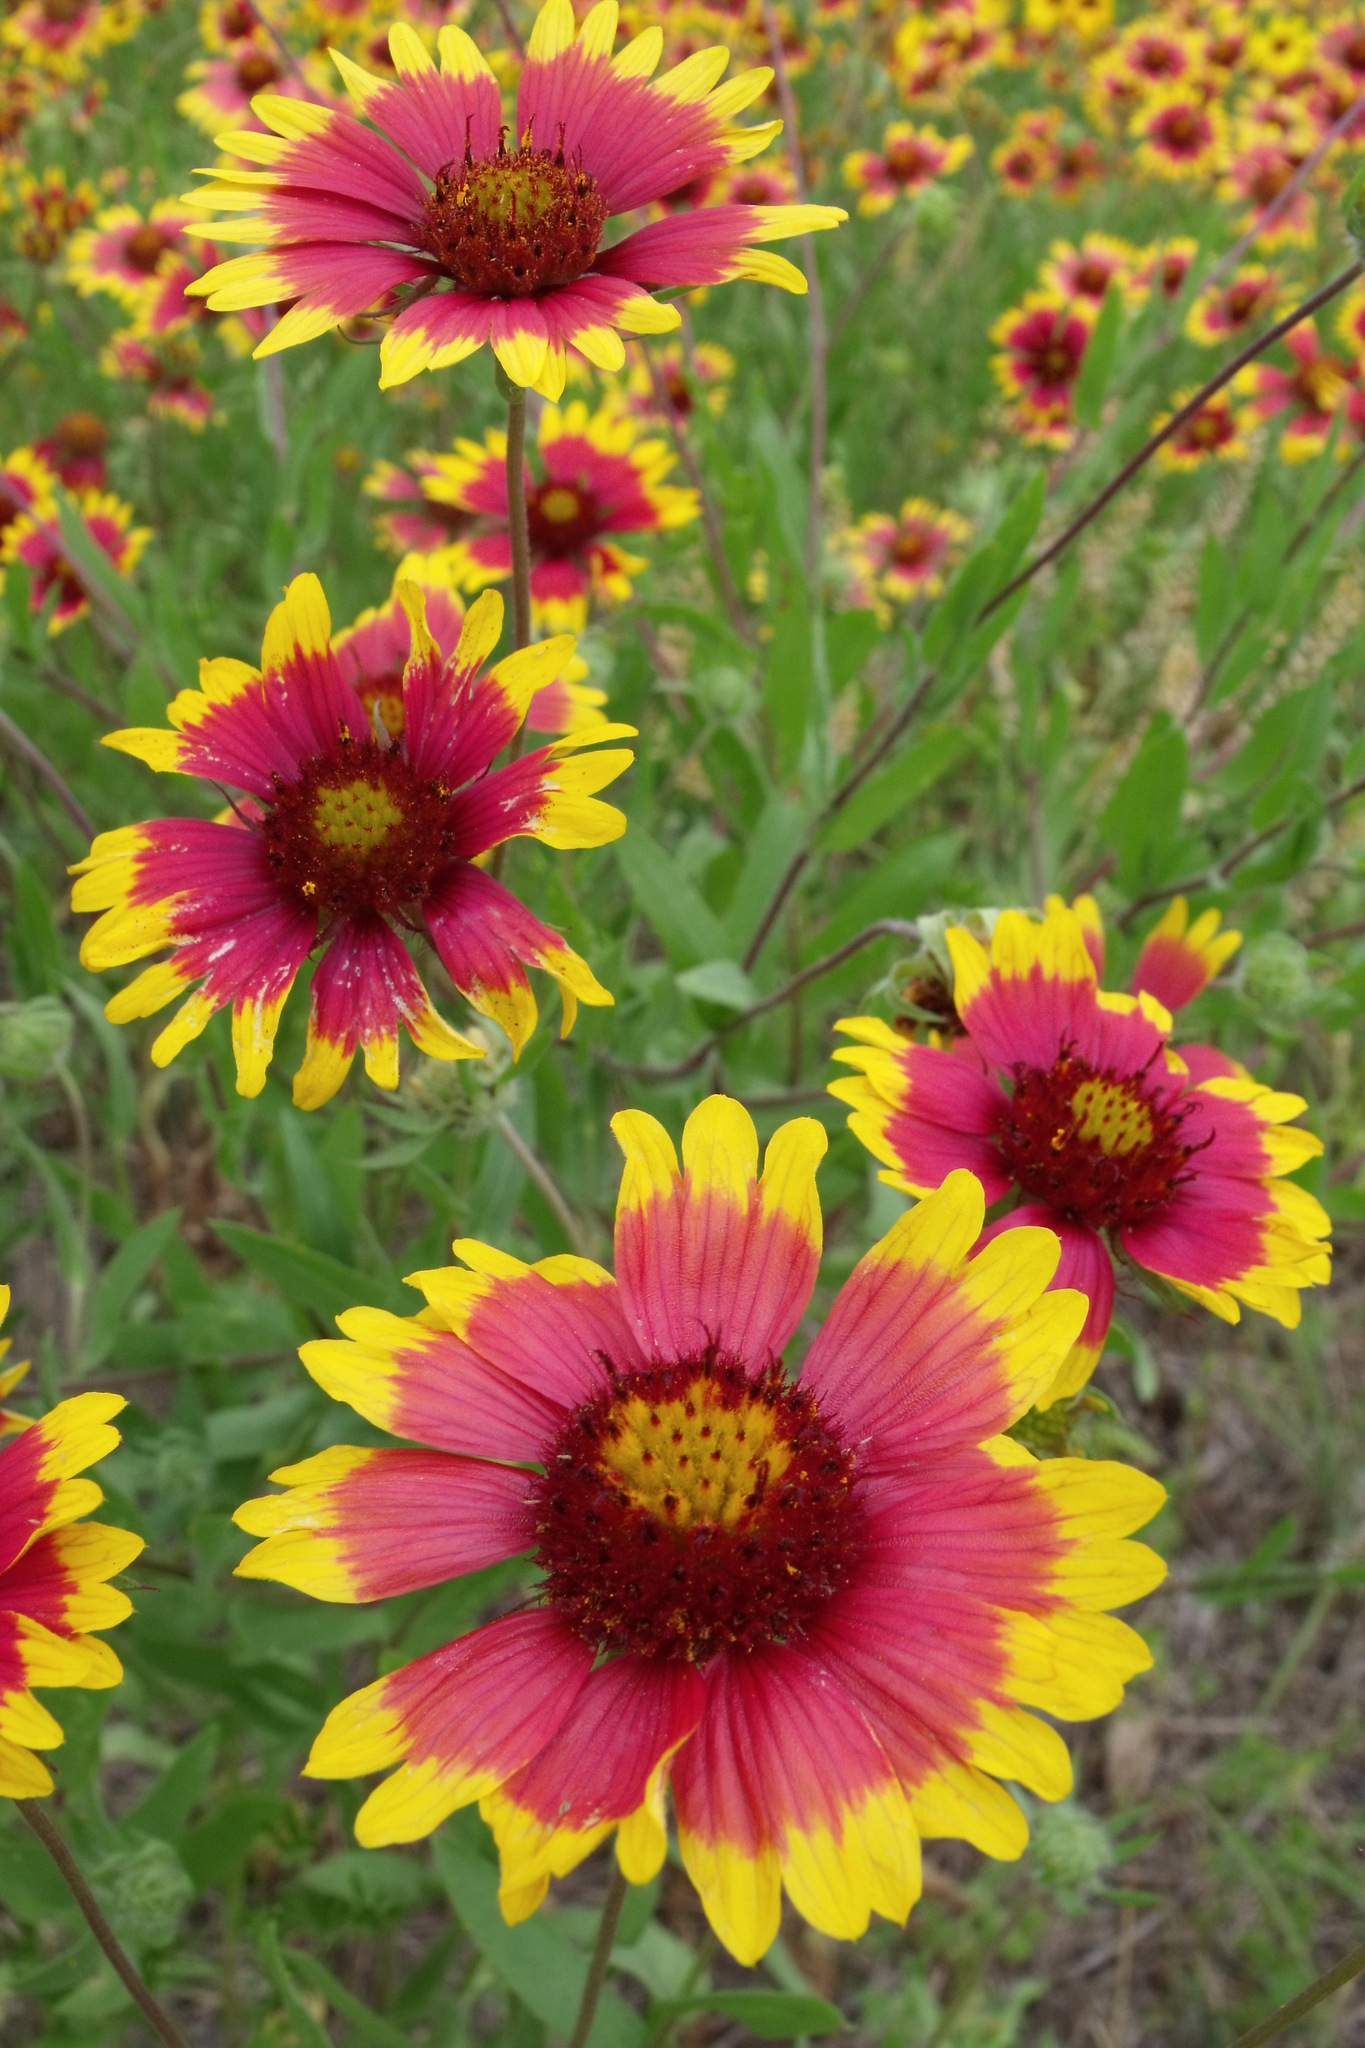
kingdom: Plantae
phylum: Tracheophyta
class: Magnoliopsida
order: Asterales
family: Asteraceae
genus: Gaillardia
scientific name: Gaillardia pulchella
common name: Firewheel
